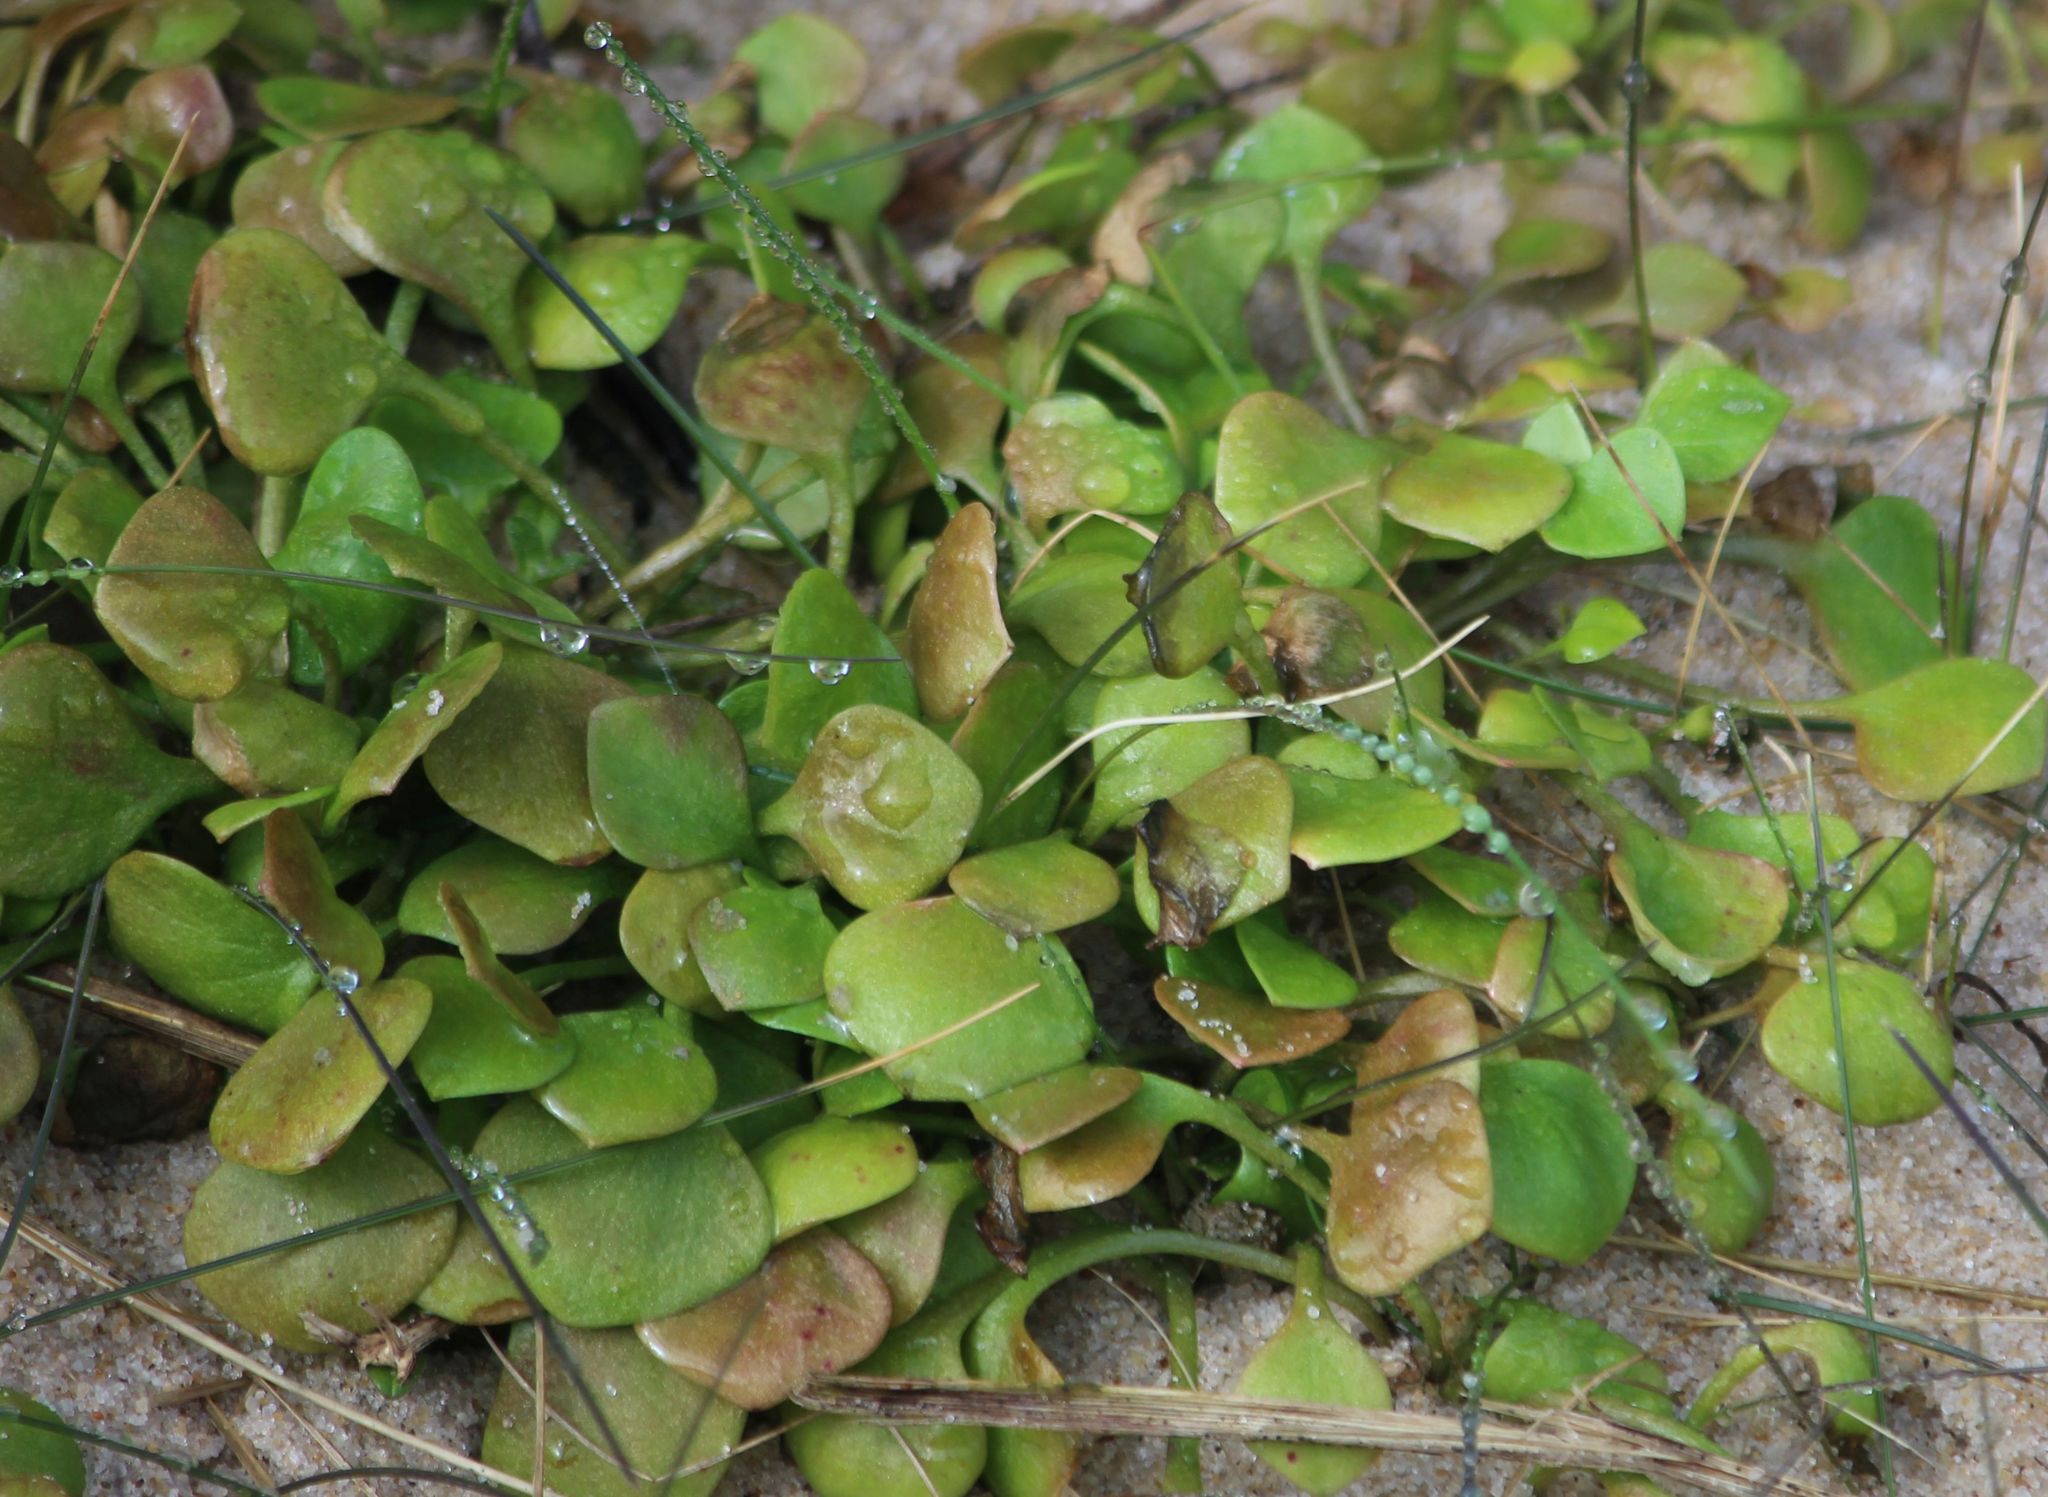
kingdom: Plantae
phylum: Tracheophyta
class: Magnoliopsida
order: Caryophyllales
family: Montiaceae
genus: Claytonia
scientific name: Claytonia perfoliata
